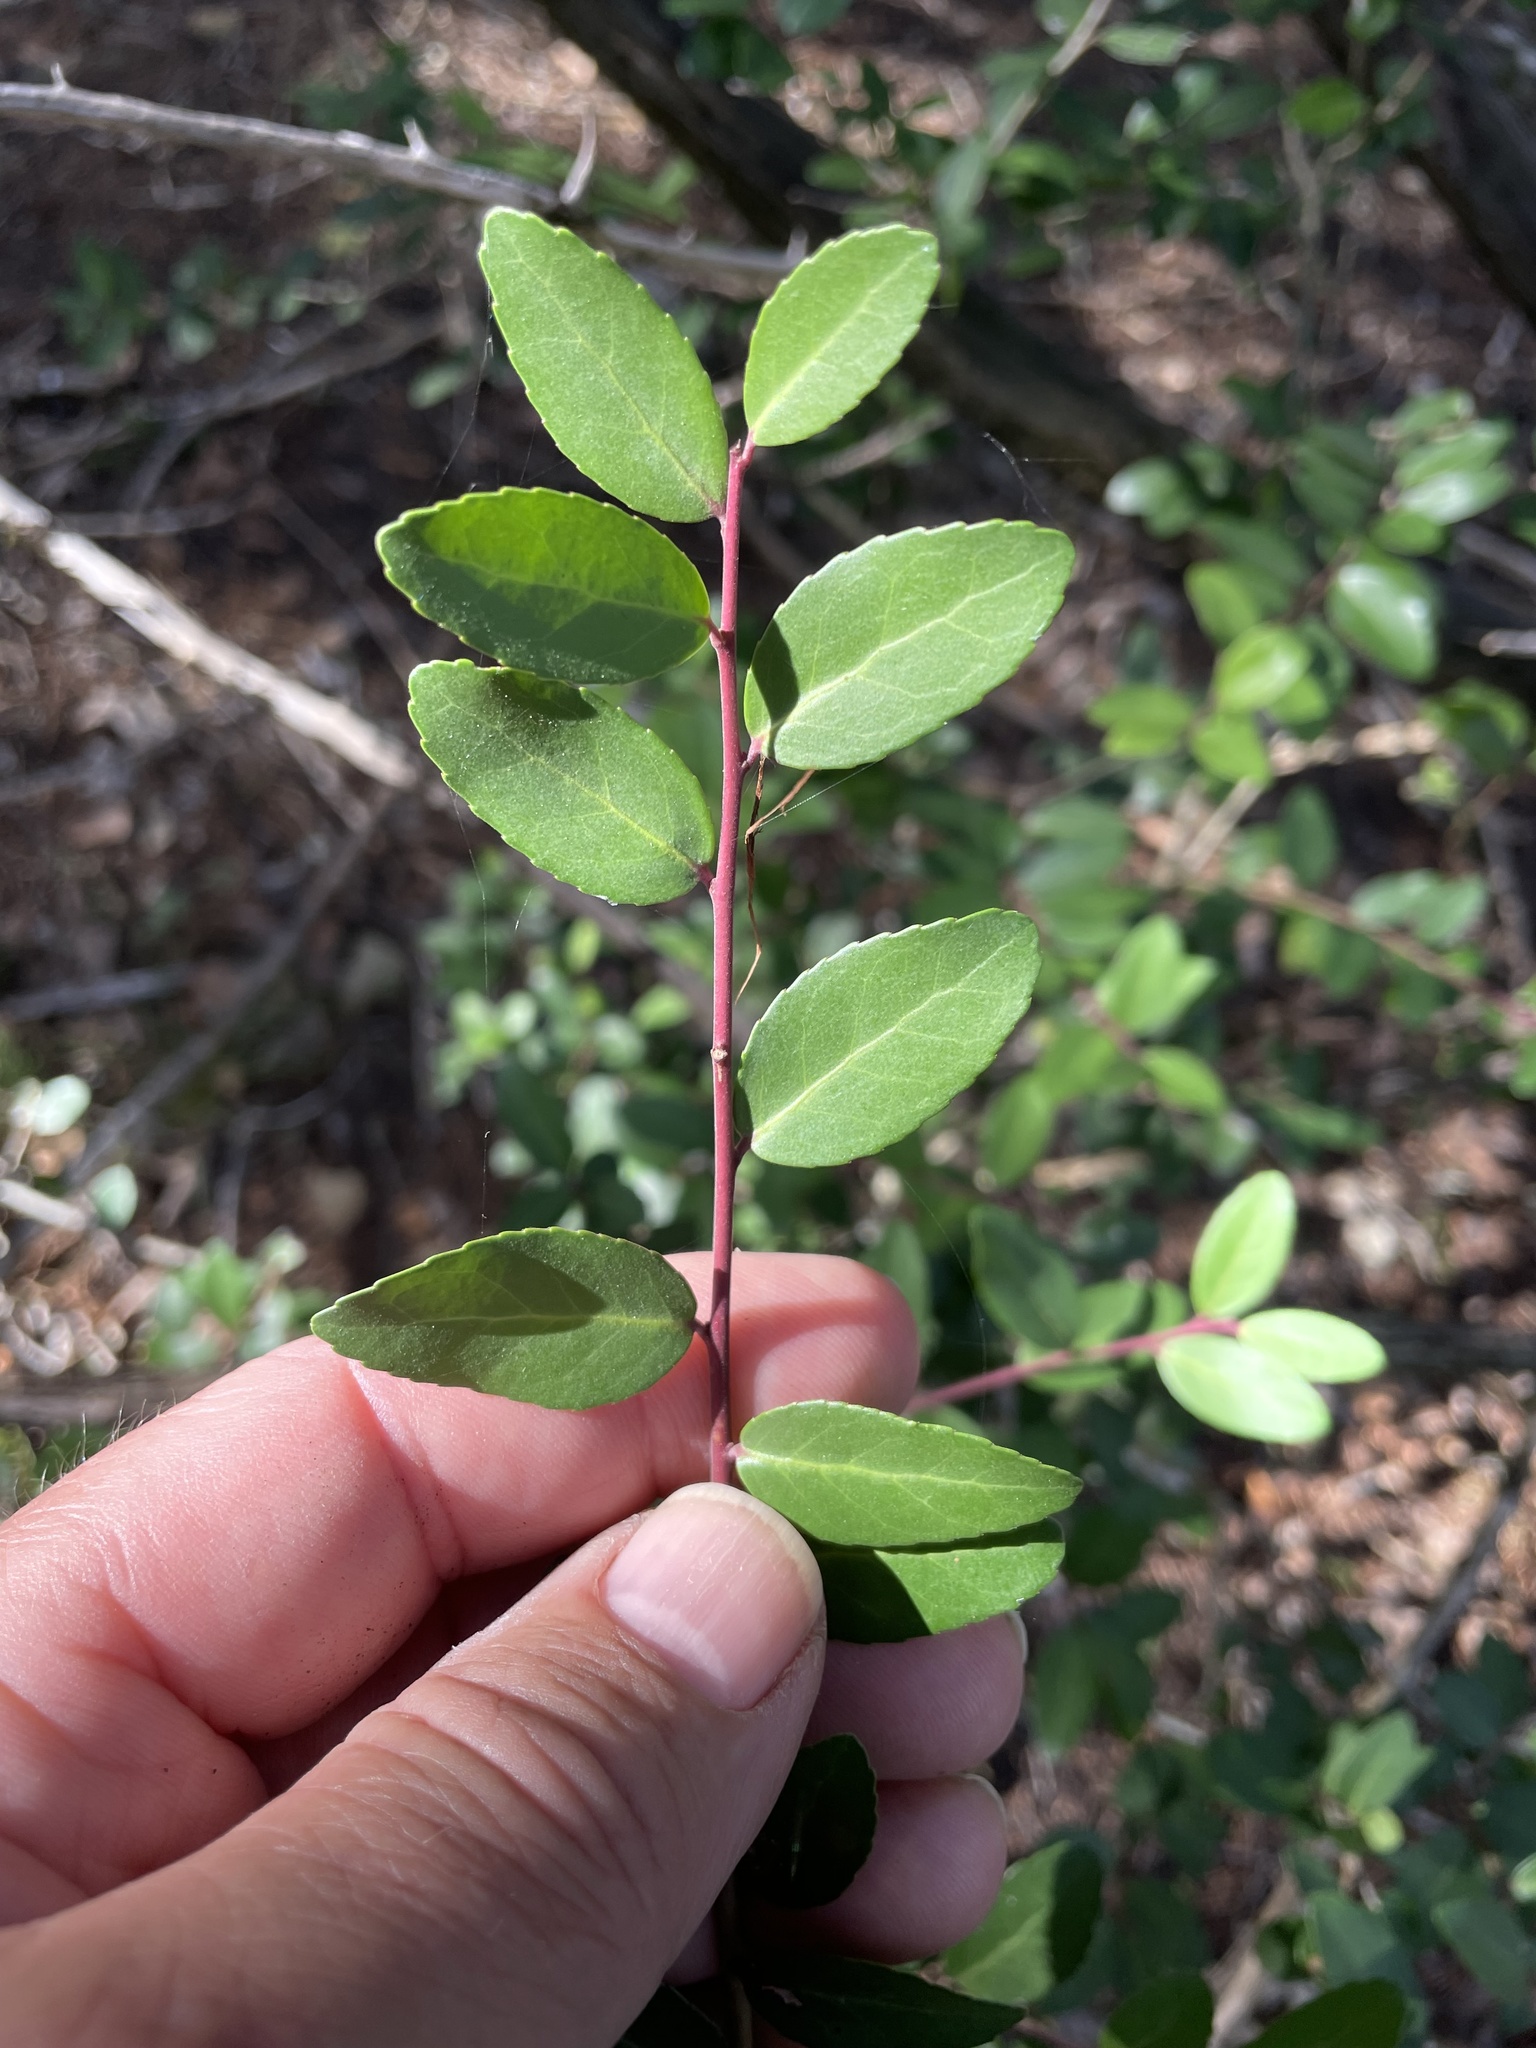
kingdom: Plantae
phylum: Tracheophyta
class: Magnoliopsida
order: Aquifoliales
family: Aquifoliaceae
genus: Ilex
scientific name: Ilex vomitoria
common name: Yaupon holly
